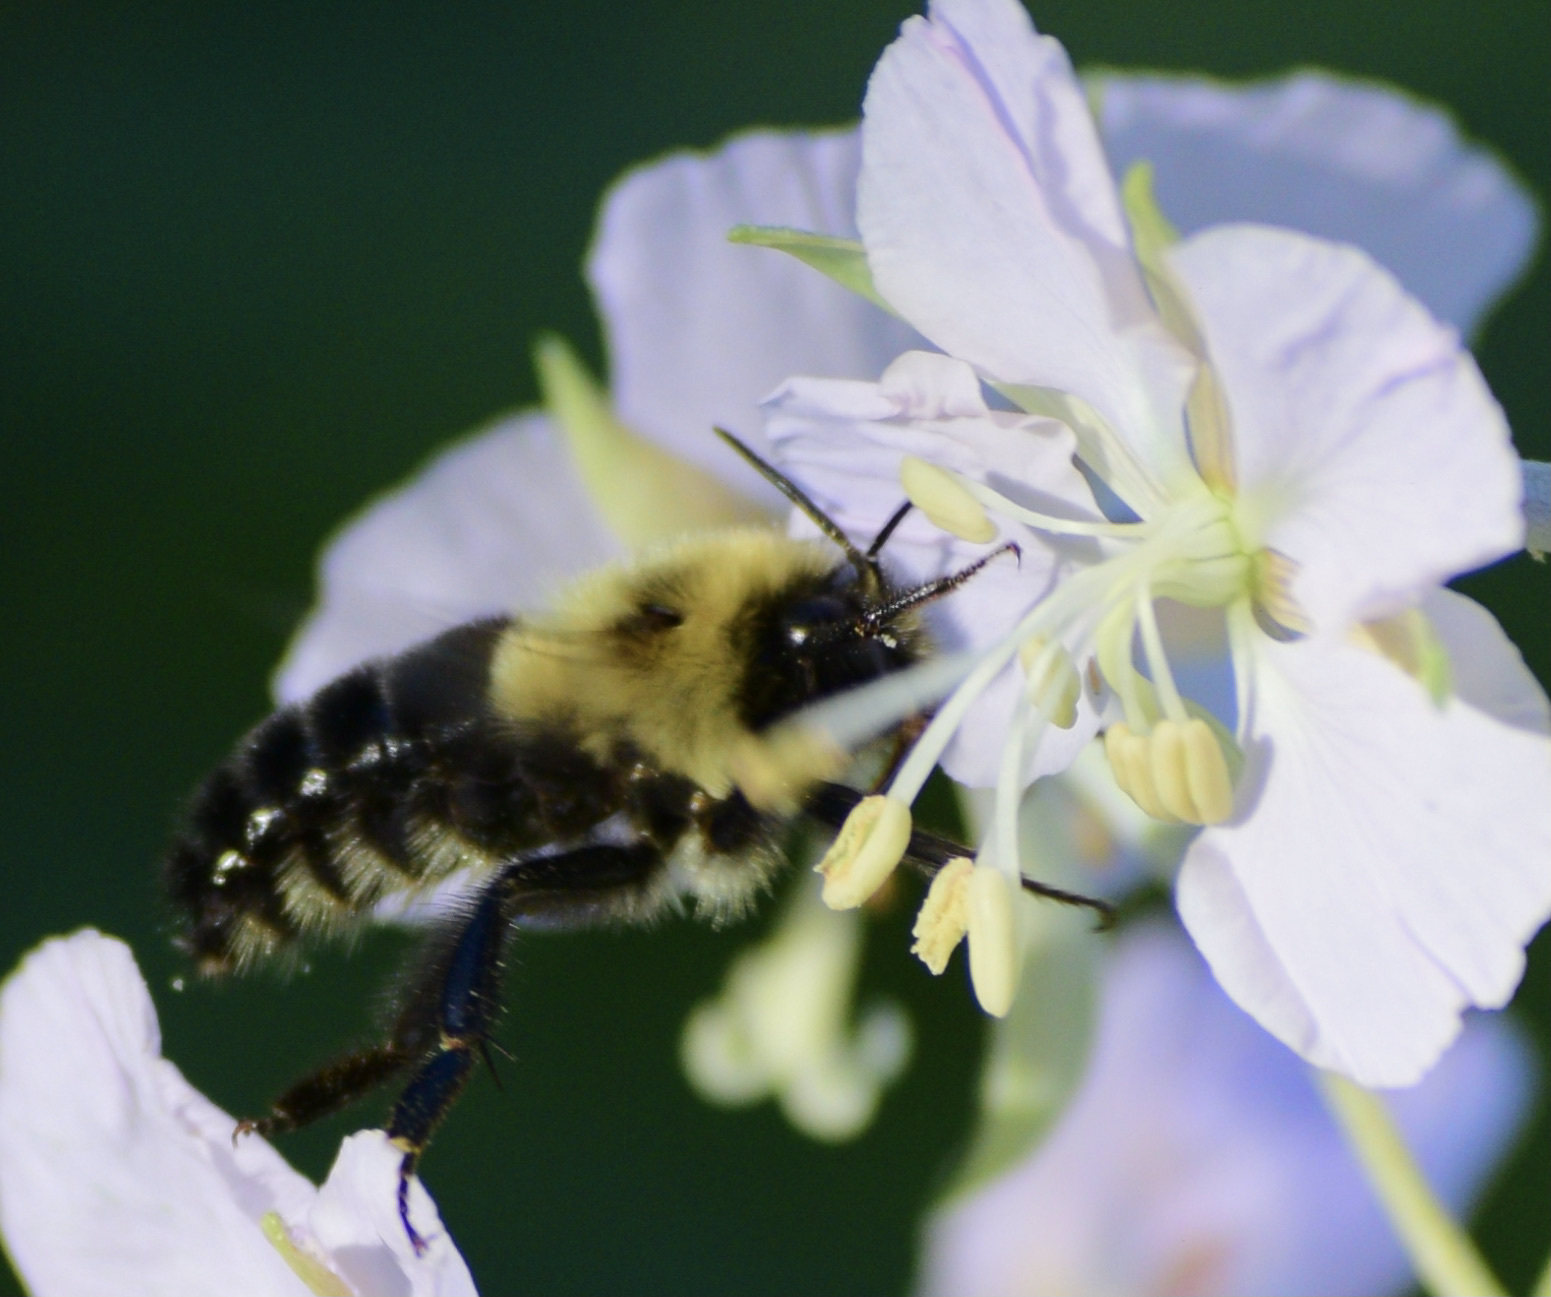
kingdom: Animalia
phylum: Arthropoda
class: Insecta
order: Hymenoptera
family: Apidae
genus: Bombus
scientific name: Bombus impatiens
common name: Common eastern bumble bee
